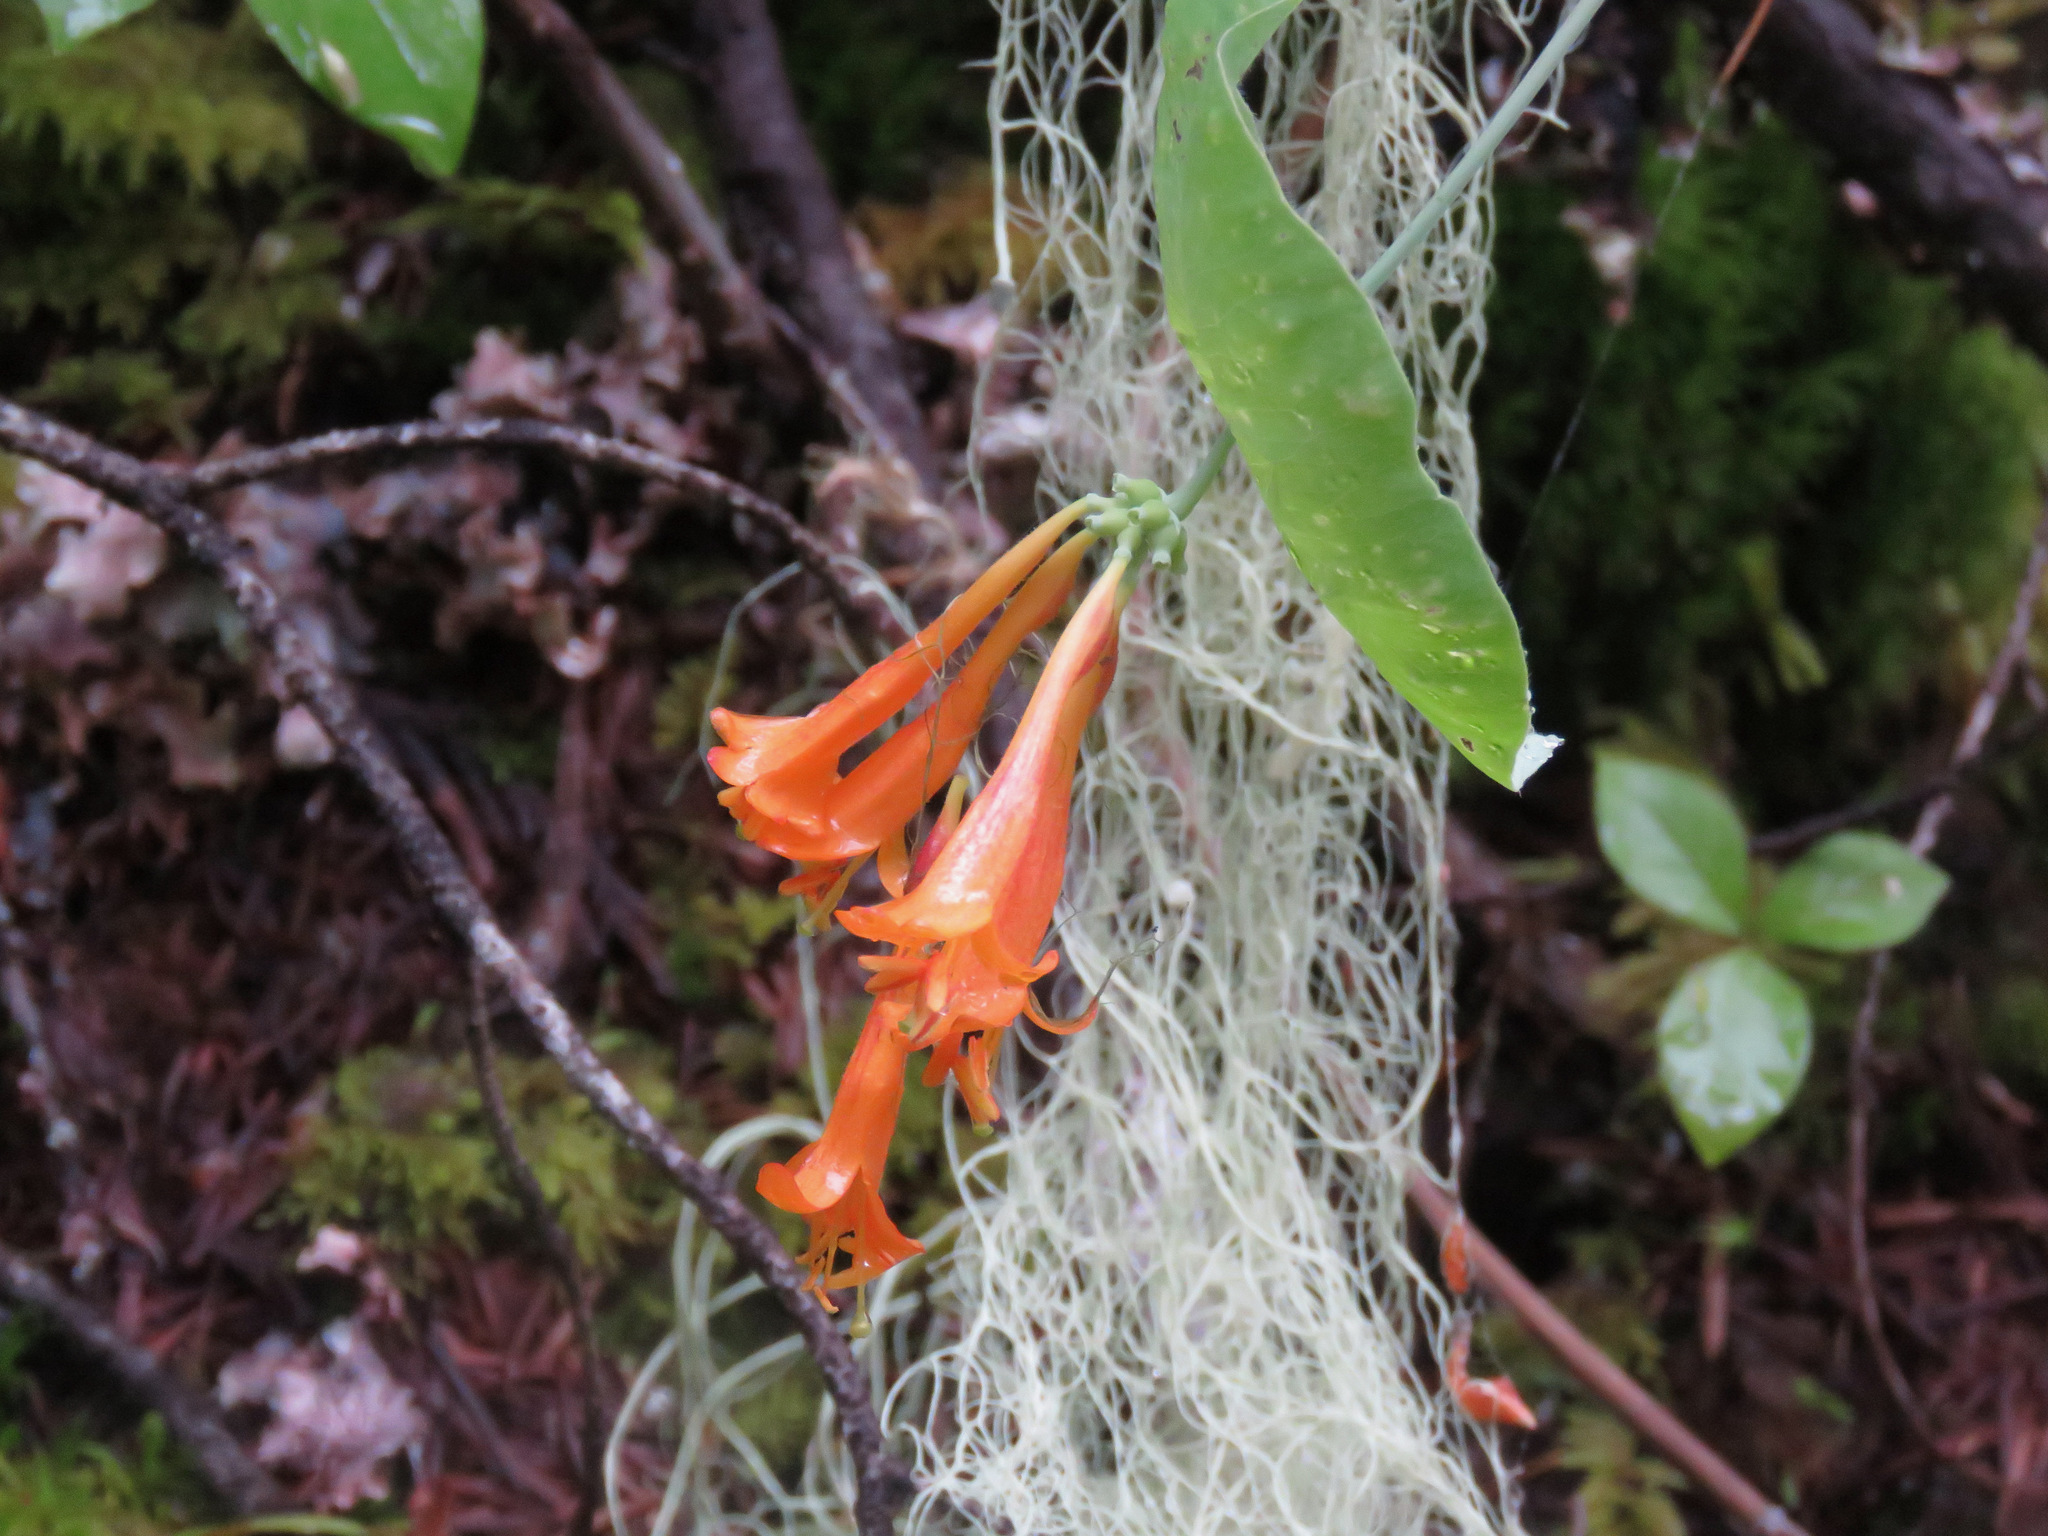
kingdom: Plantae
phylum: Tracheophyta
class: Magnoliopsida
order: Dipsacales
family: Caprifoliaceae
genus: Lonicera
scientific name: Lonicera ciliosa
